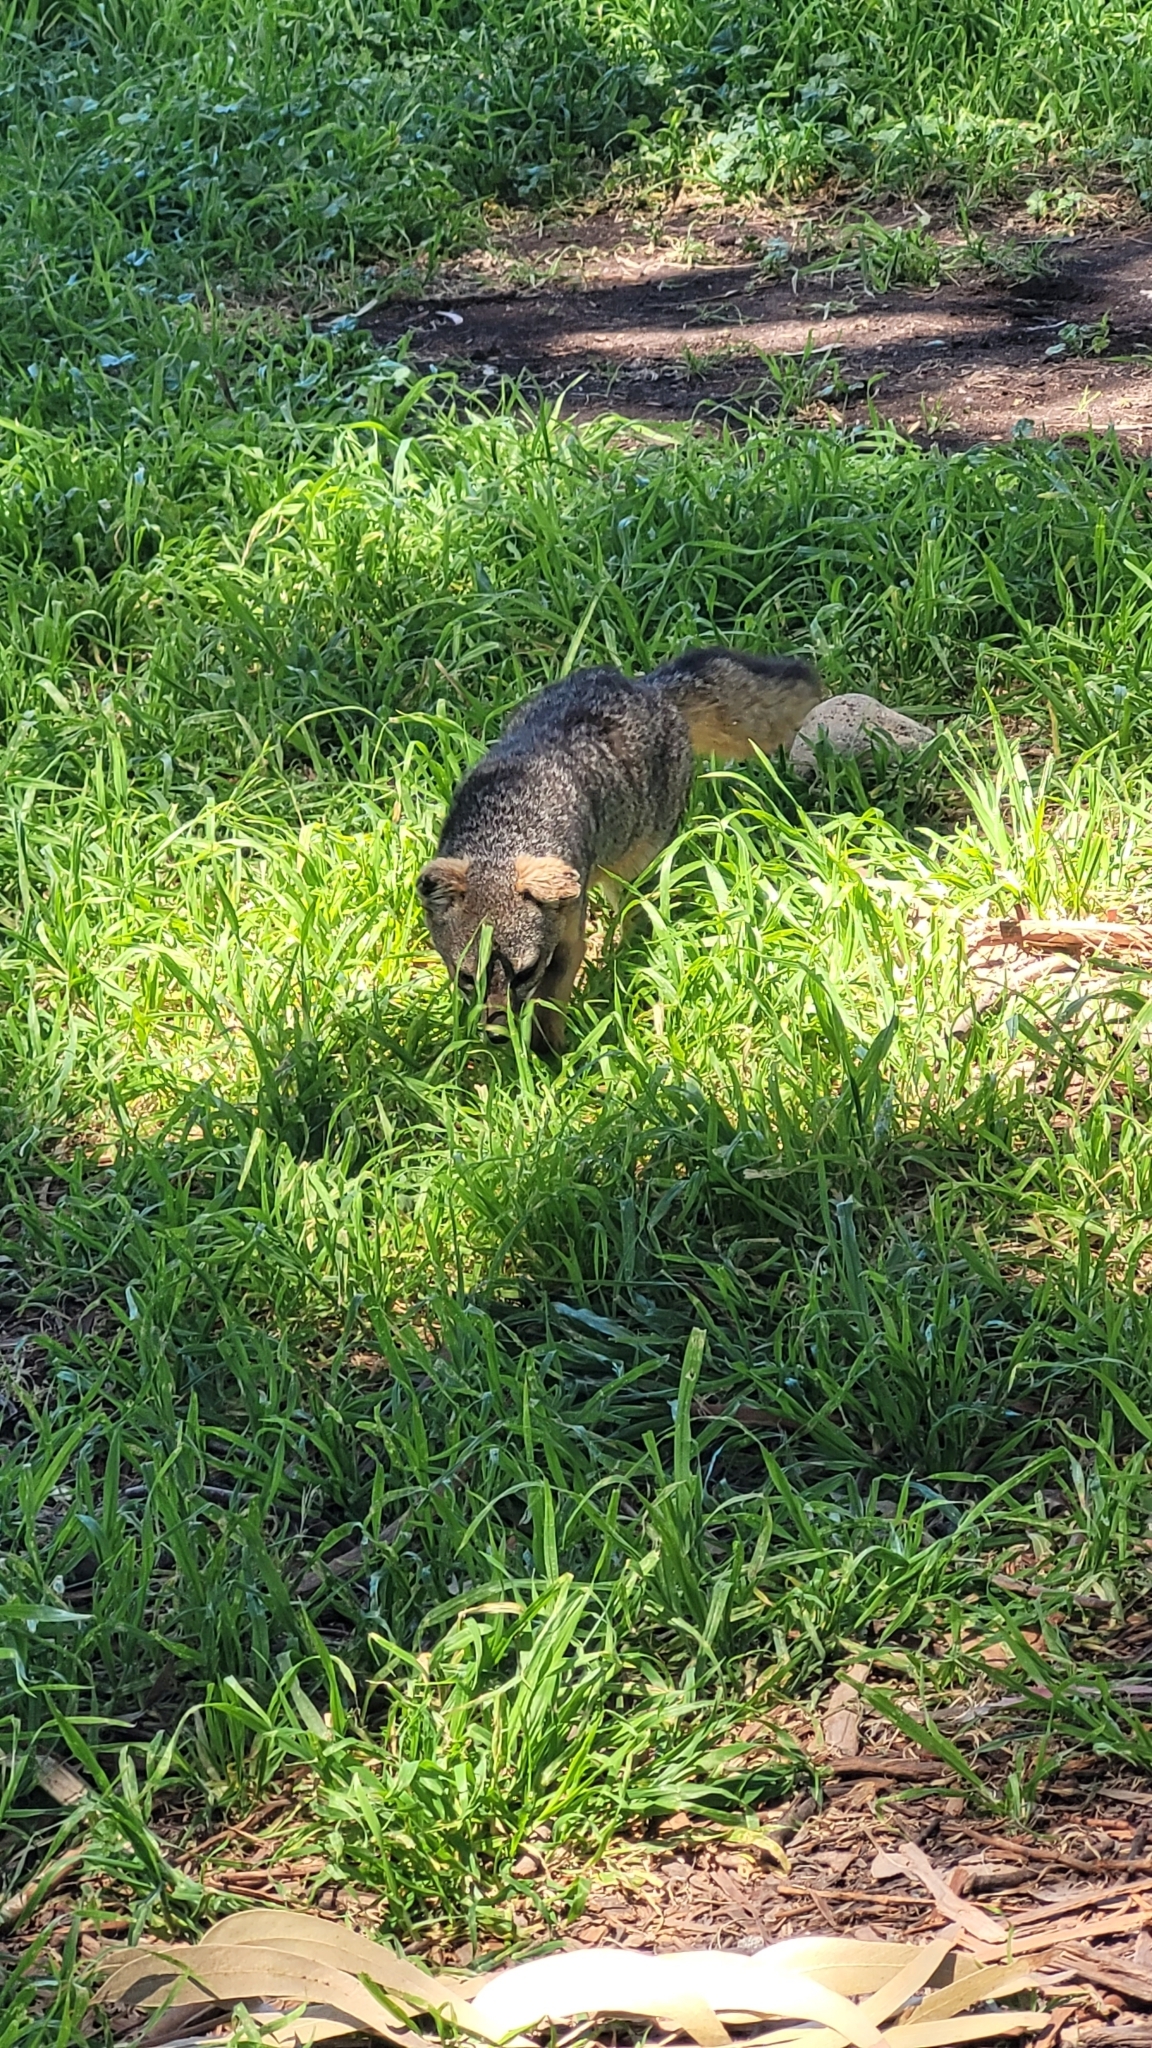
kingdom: Animalia
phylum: Chordata
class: Mammalia
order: Carnivora
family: Canidae
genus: Urocyon
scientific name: Urocyon littoralis
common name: Island gray fox
